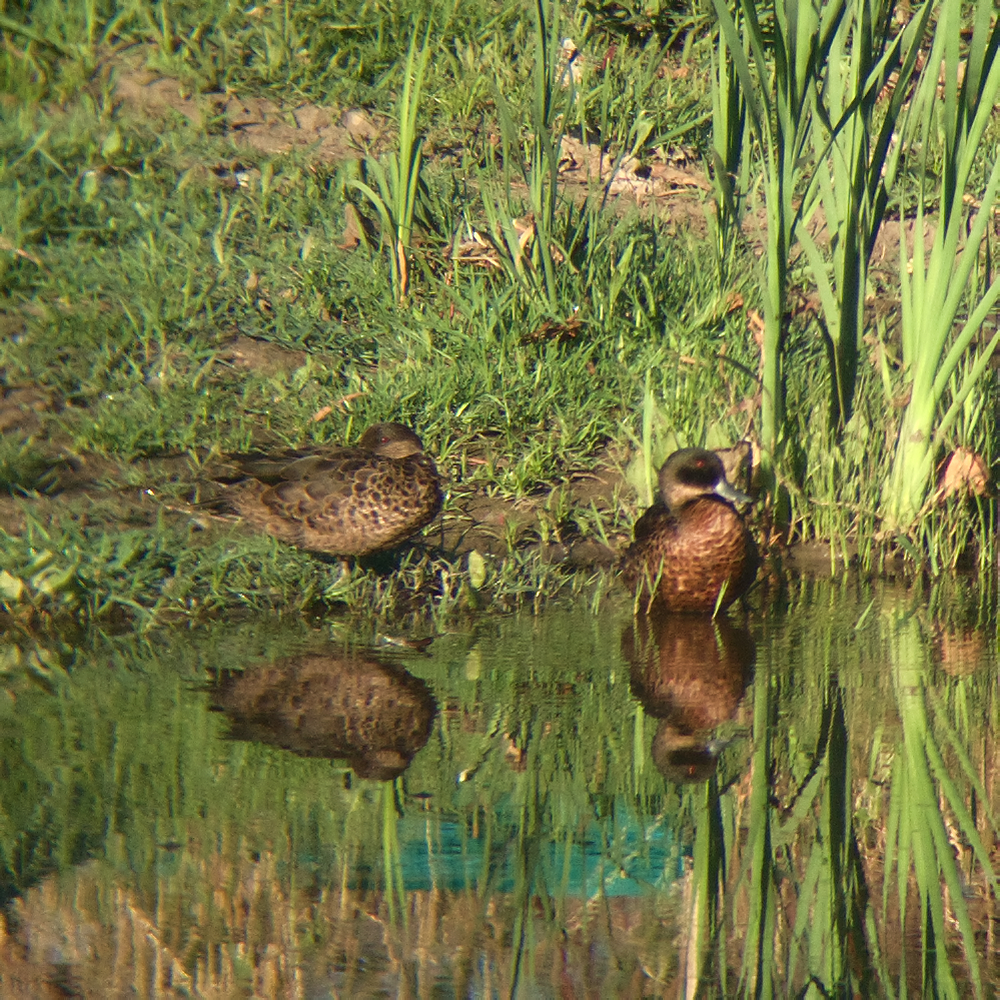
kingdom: Animalia
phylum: Chordata
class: Aves
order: Anseriformes
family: Anatidae
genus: Anas
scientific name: Anas castanea
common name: Chestnut teal
